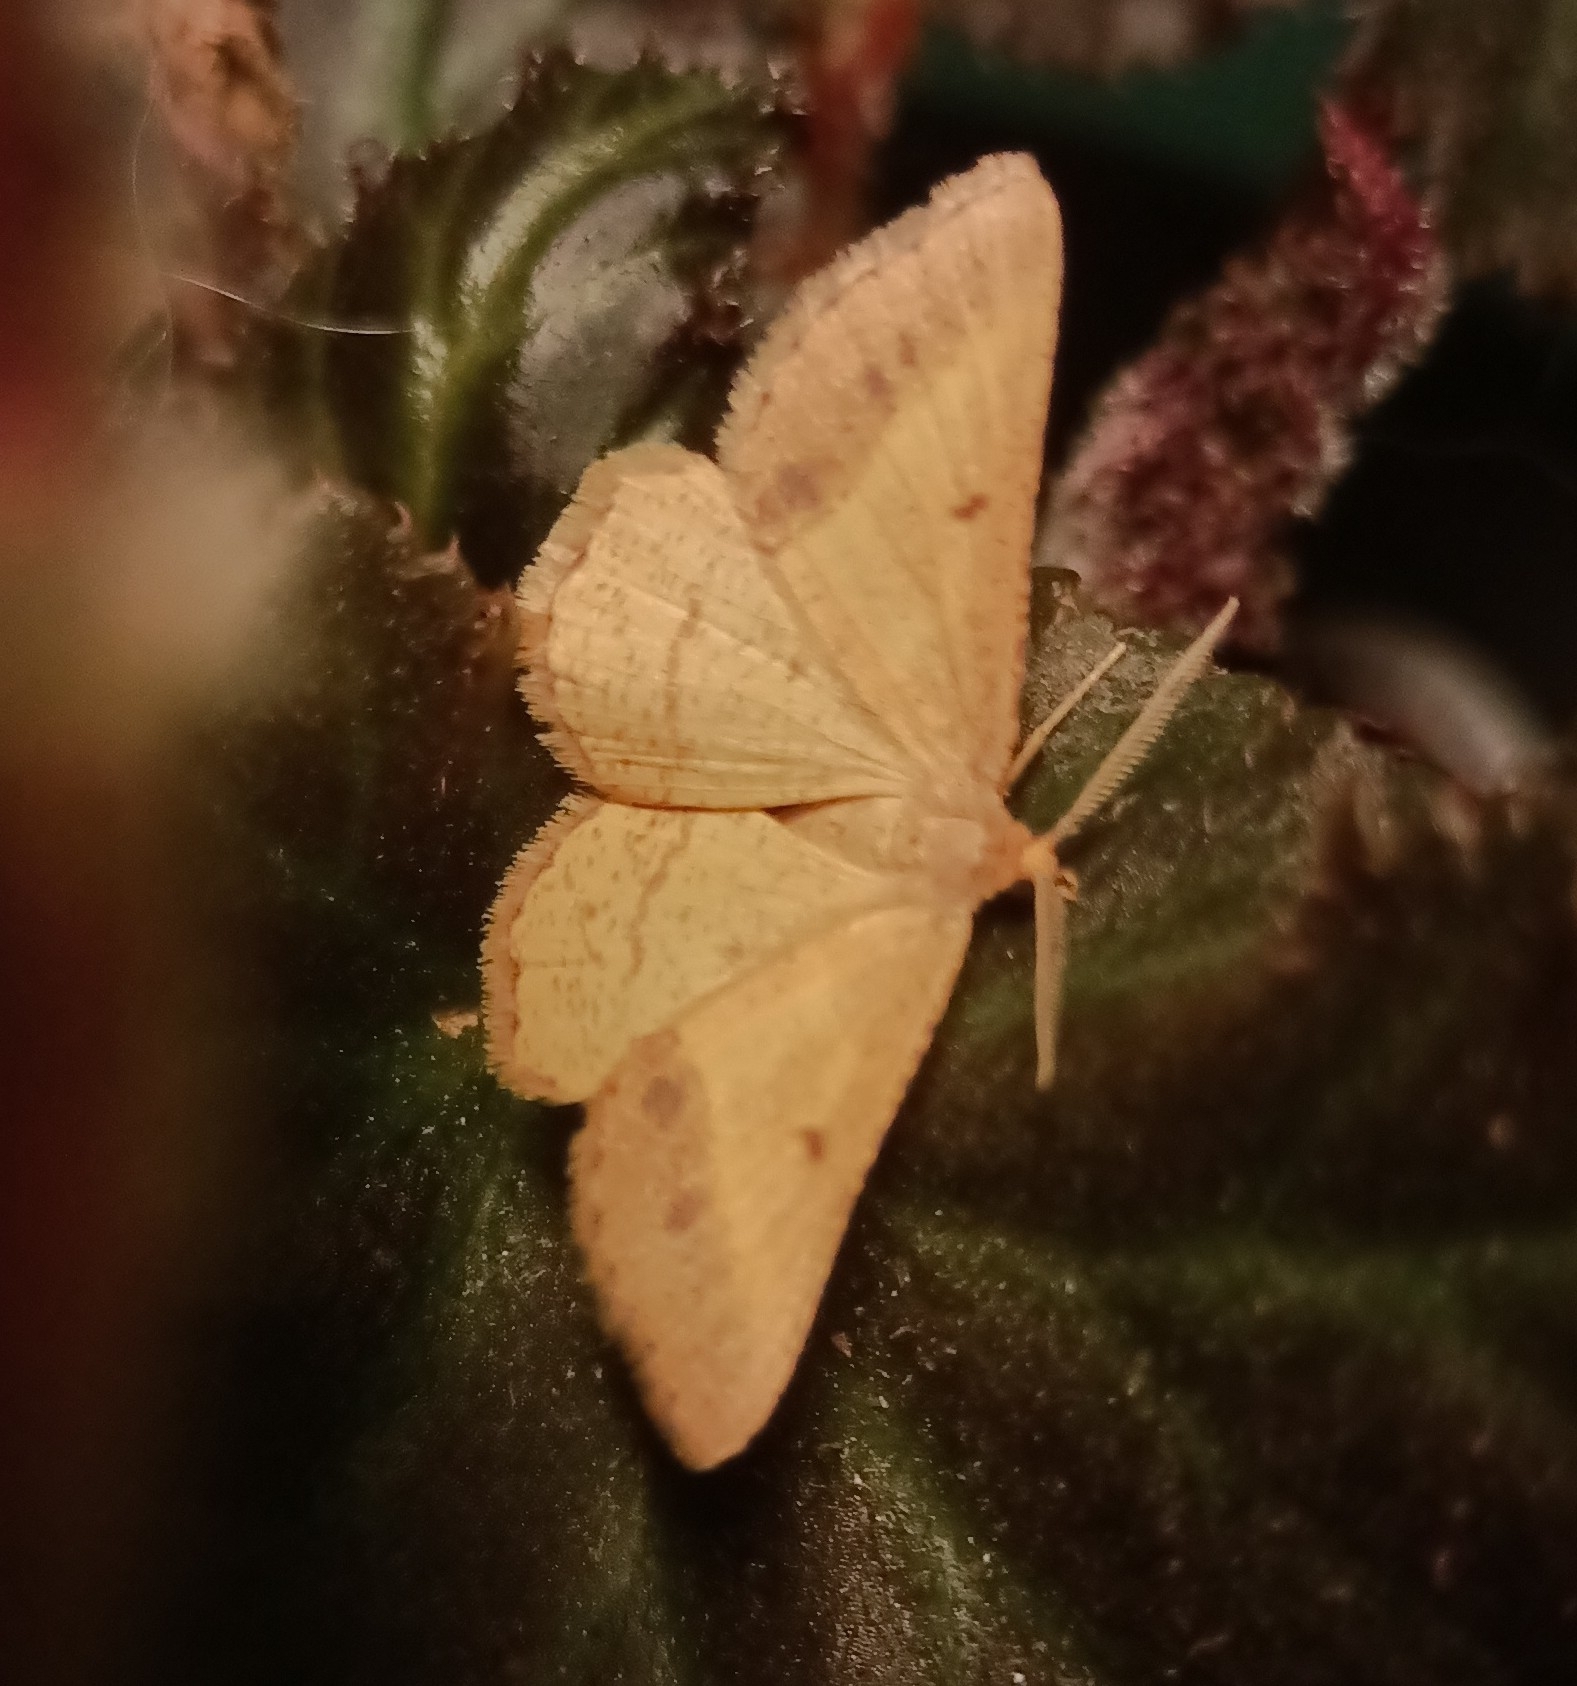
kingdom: Animalia
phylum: Arthropoda
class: Insecta
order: Lepidoptera
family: Geometridae
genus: Tephrina
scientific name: Tephrina arenacearia
